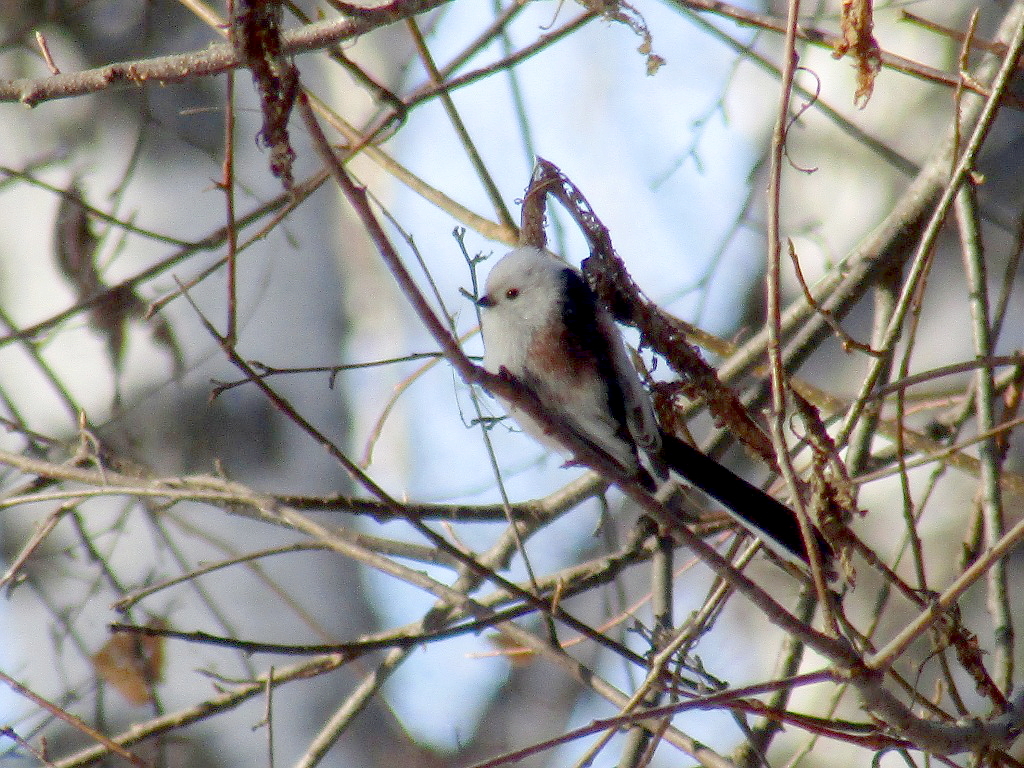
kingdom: Animalia
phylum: Chordata
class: Aves
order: Passeriformes
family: Aegithalidae
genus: Aegithalos
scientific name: Aegithalos caudatus
